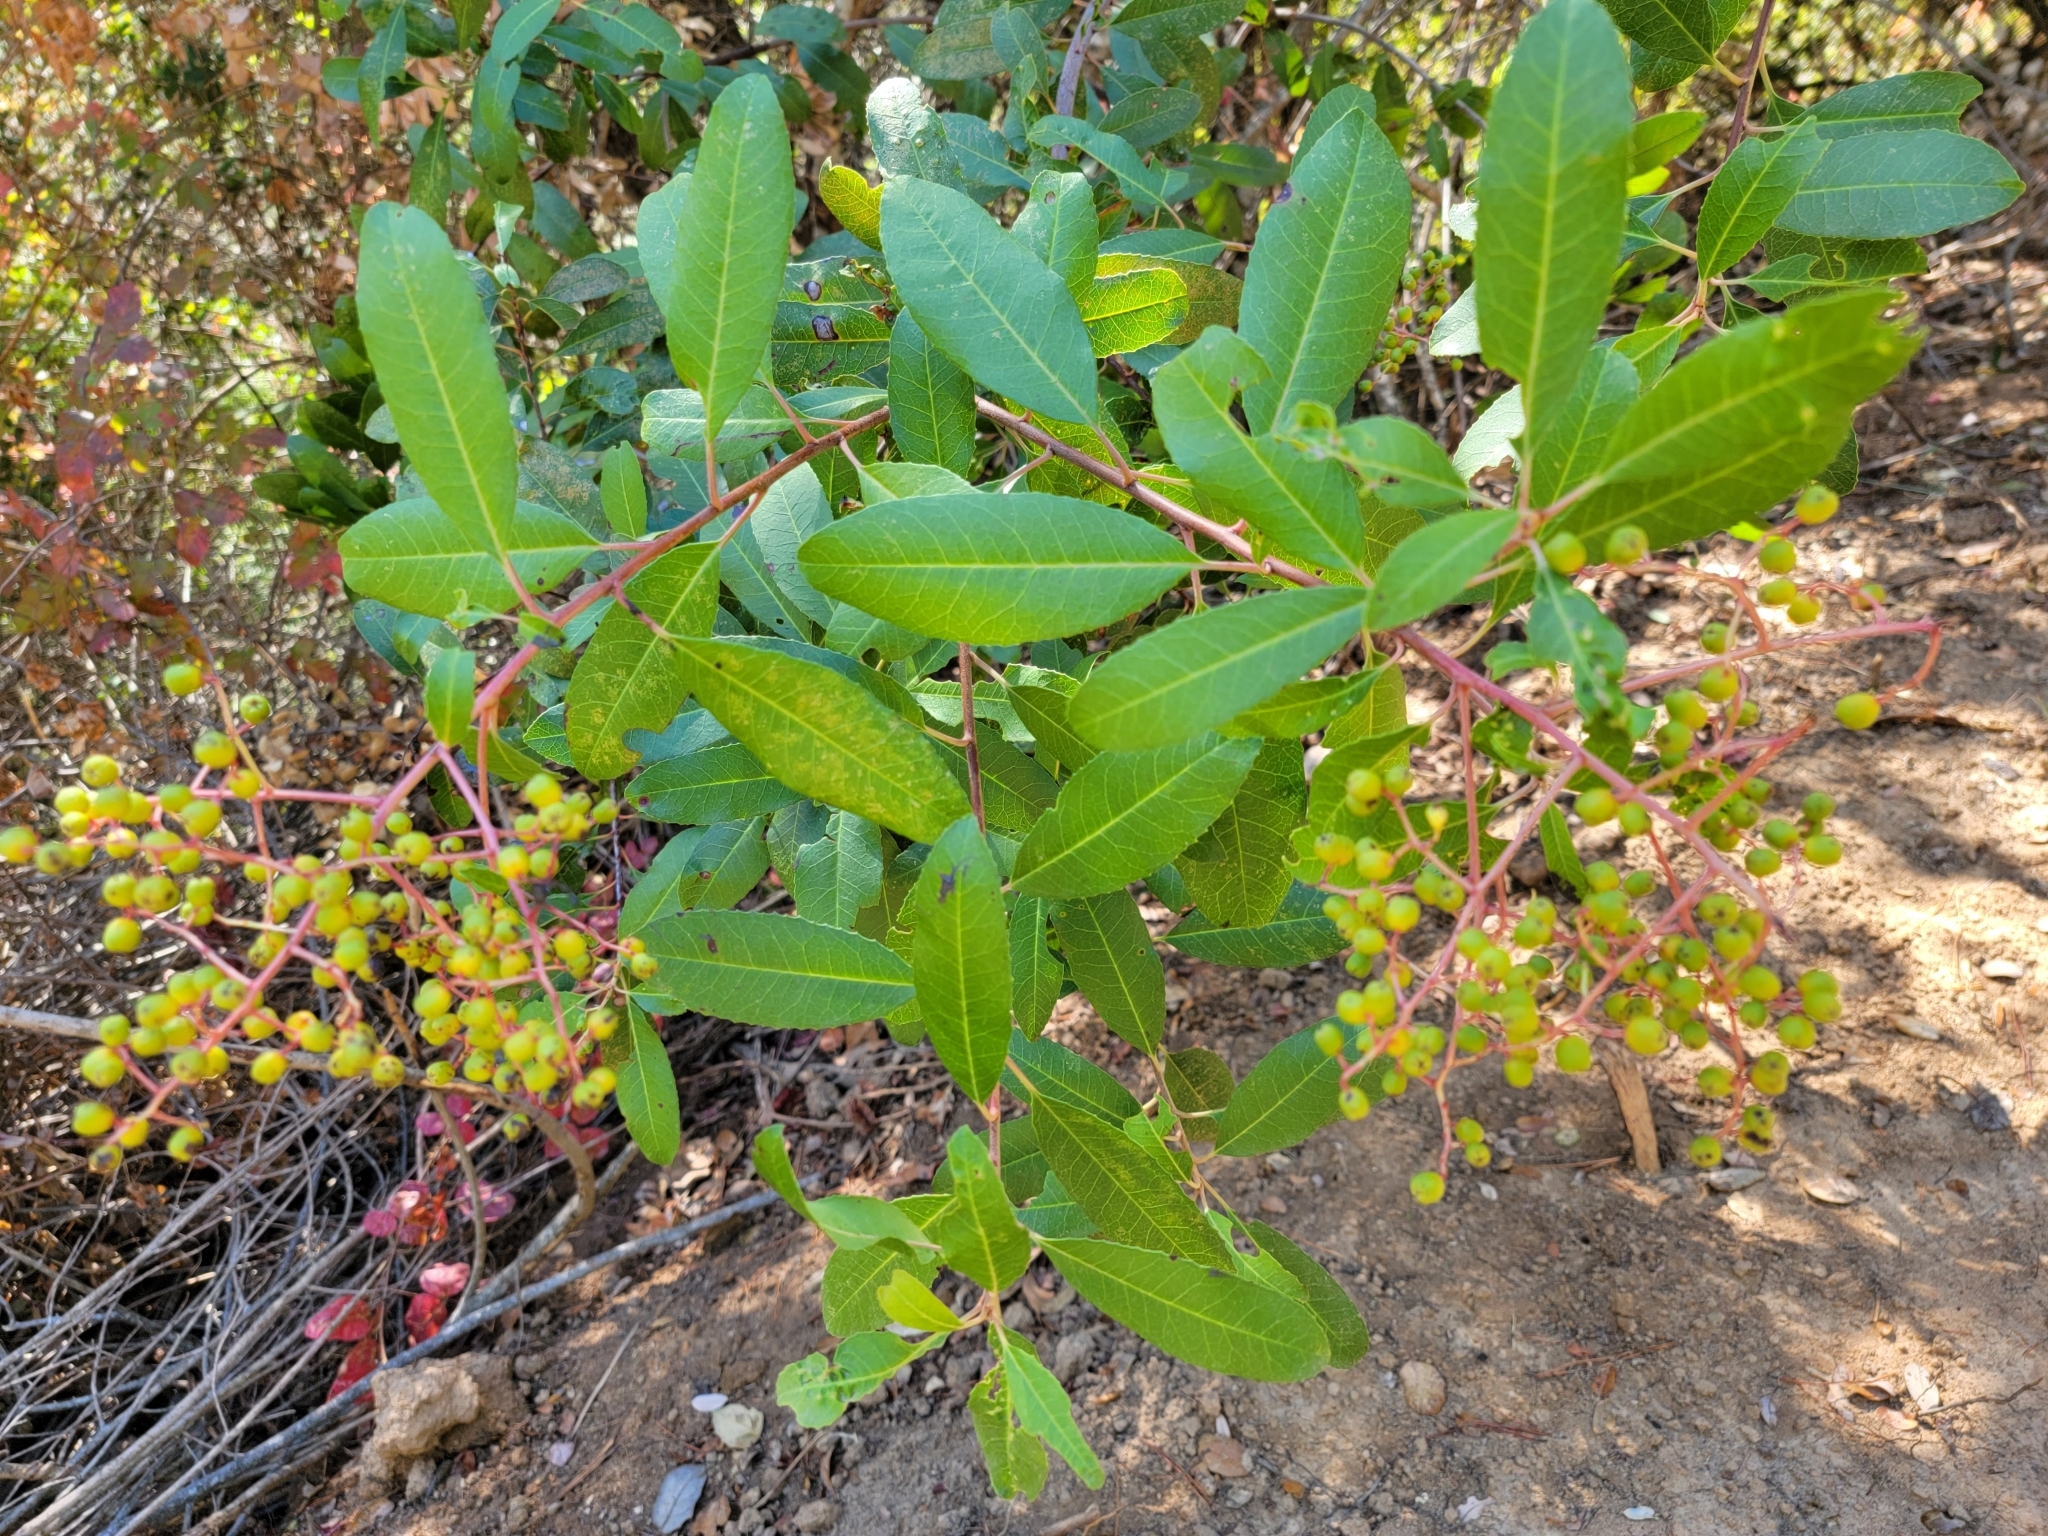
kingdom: Plantae
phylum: Tracheophyta
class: Magnoliopsida
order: Rosales
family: Rosaceae
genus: Heteromeles
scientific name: Heteromeles arbutifolia
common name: California-holly
